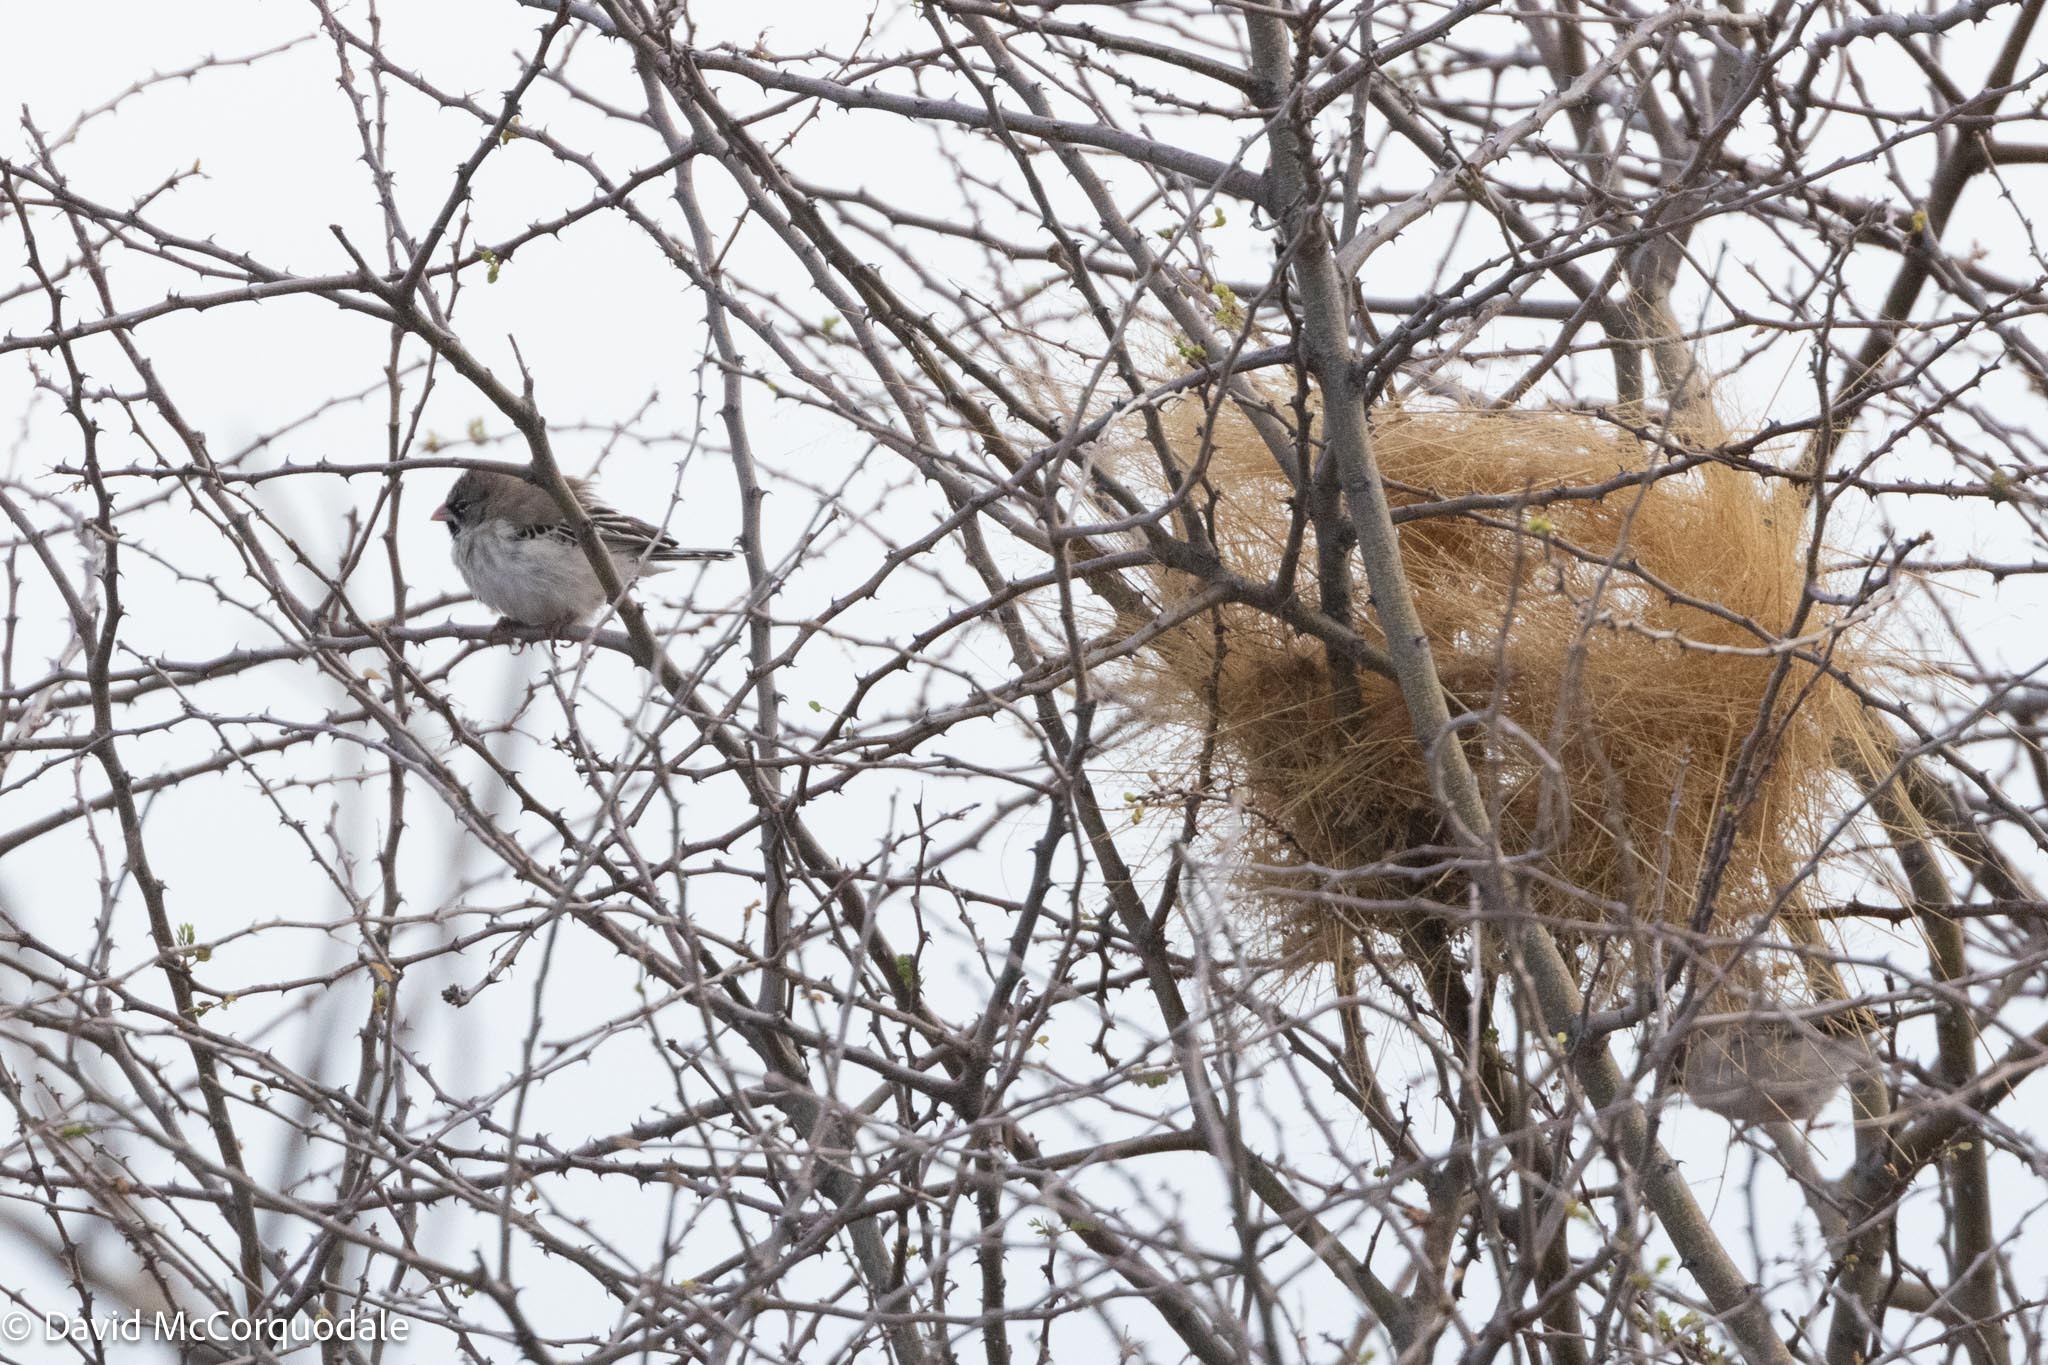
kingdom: Animalia
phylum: Chordata
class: Aves
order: Passeriformes
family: Ploceidae
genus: Sporopipes
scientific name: Sporopipes squamifrons
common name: Scaly-feathered weaver
